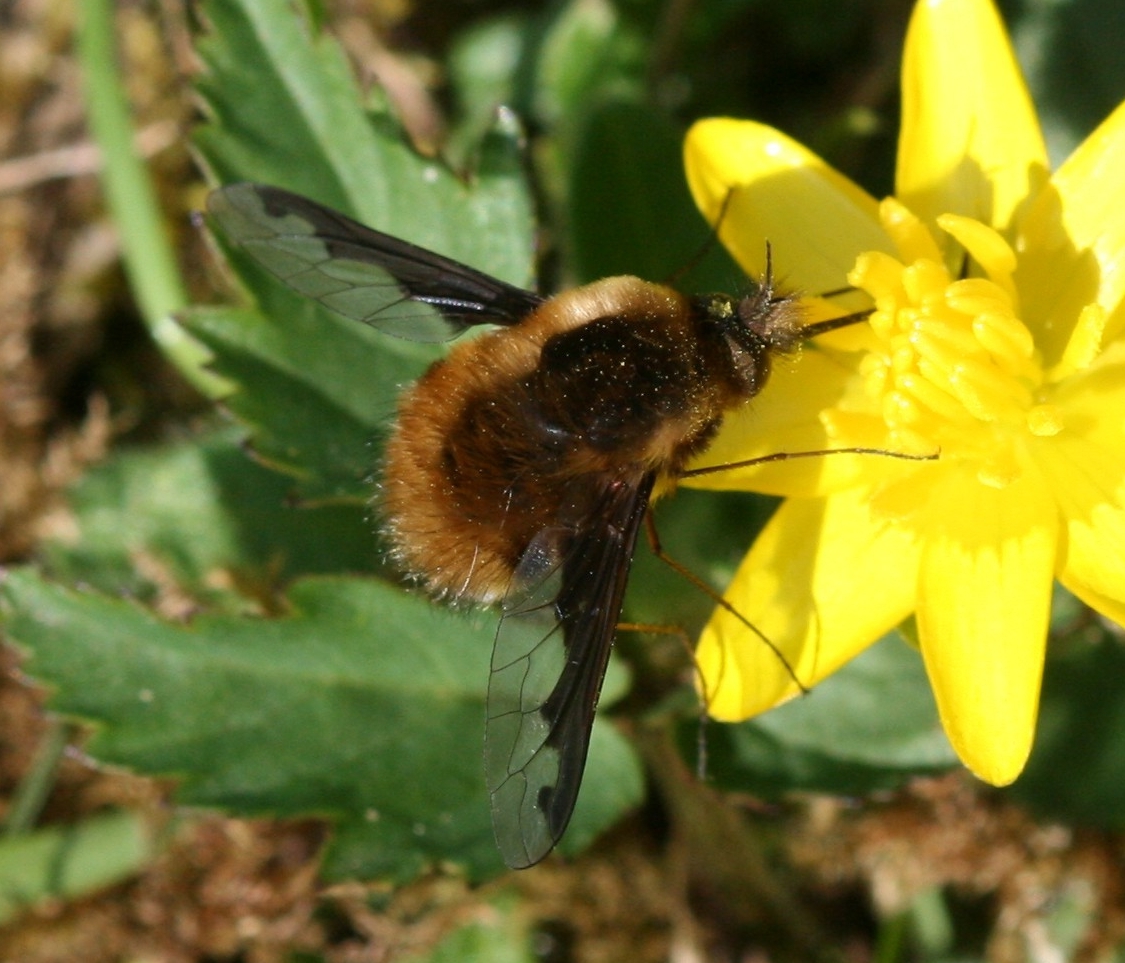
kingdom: Animalia
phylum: Arthropoda
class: Insecta
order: Diptera
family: Bombyliidae
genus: Bombylius
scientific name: Bombylius major
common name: Bee fly
